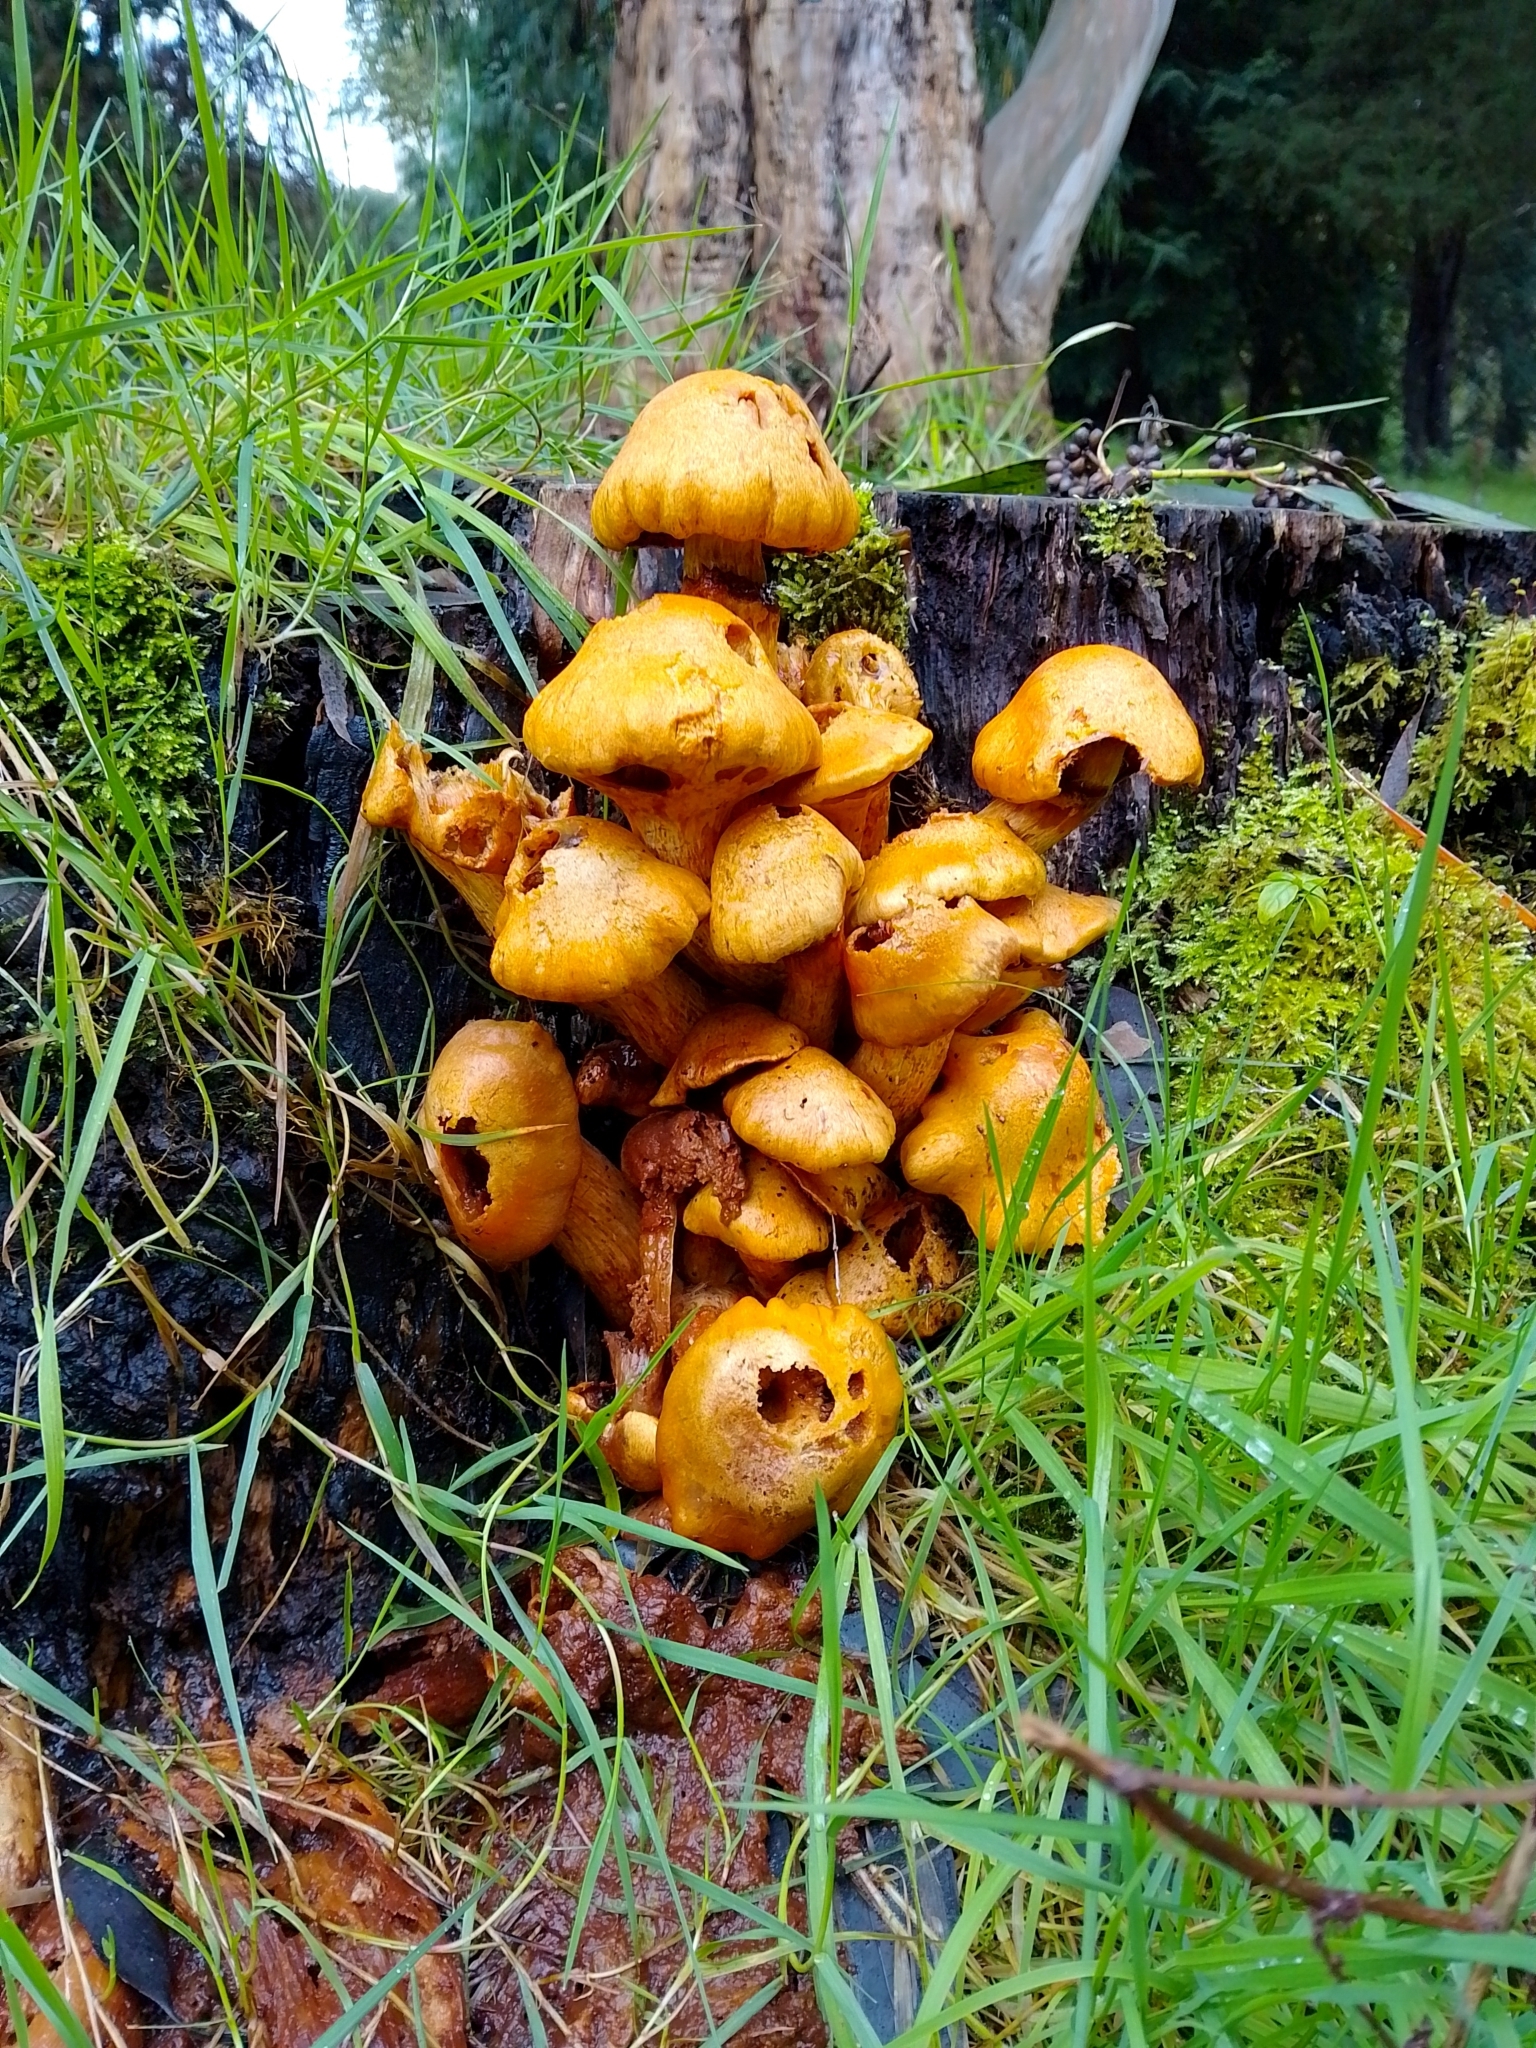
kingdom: Fungi
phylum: Basidiomycota
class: Agaricomycetes
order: Agaricales
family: Hymenogastraceae
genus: Gymnopilus
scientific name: Gymnopilus junonius
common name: Spectacular rustgill
